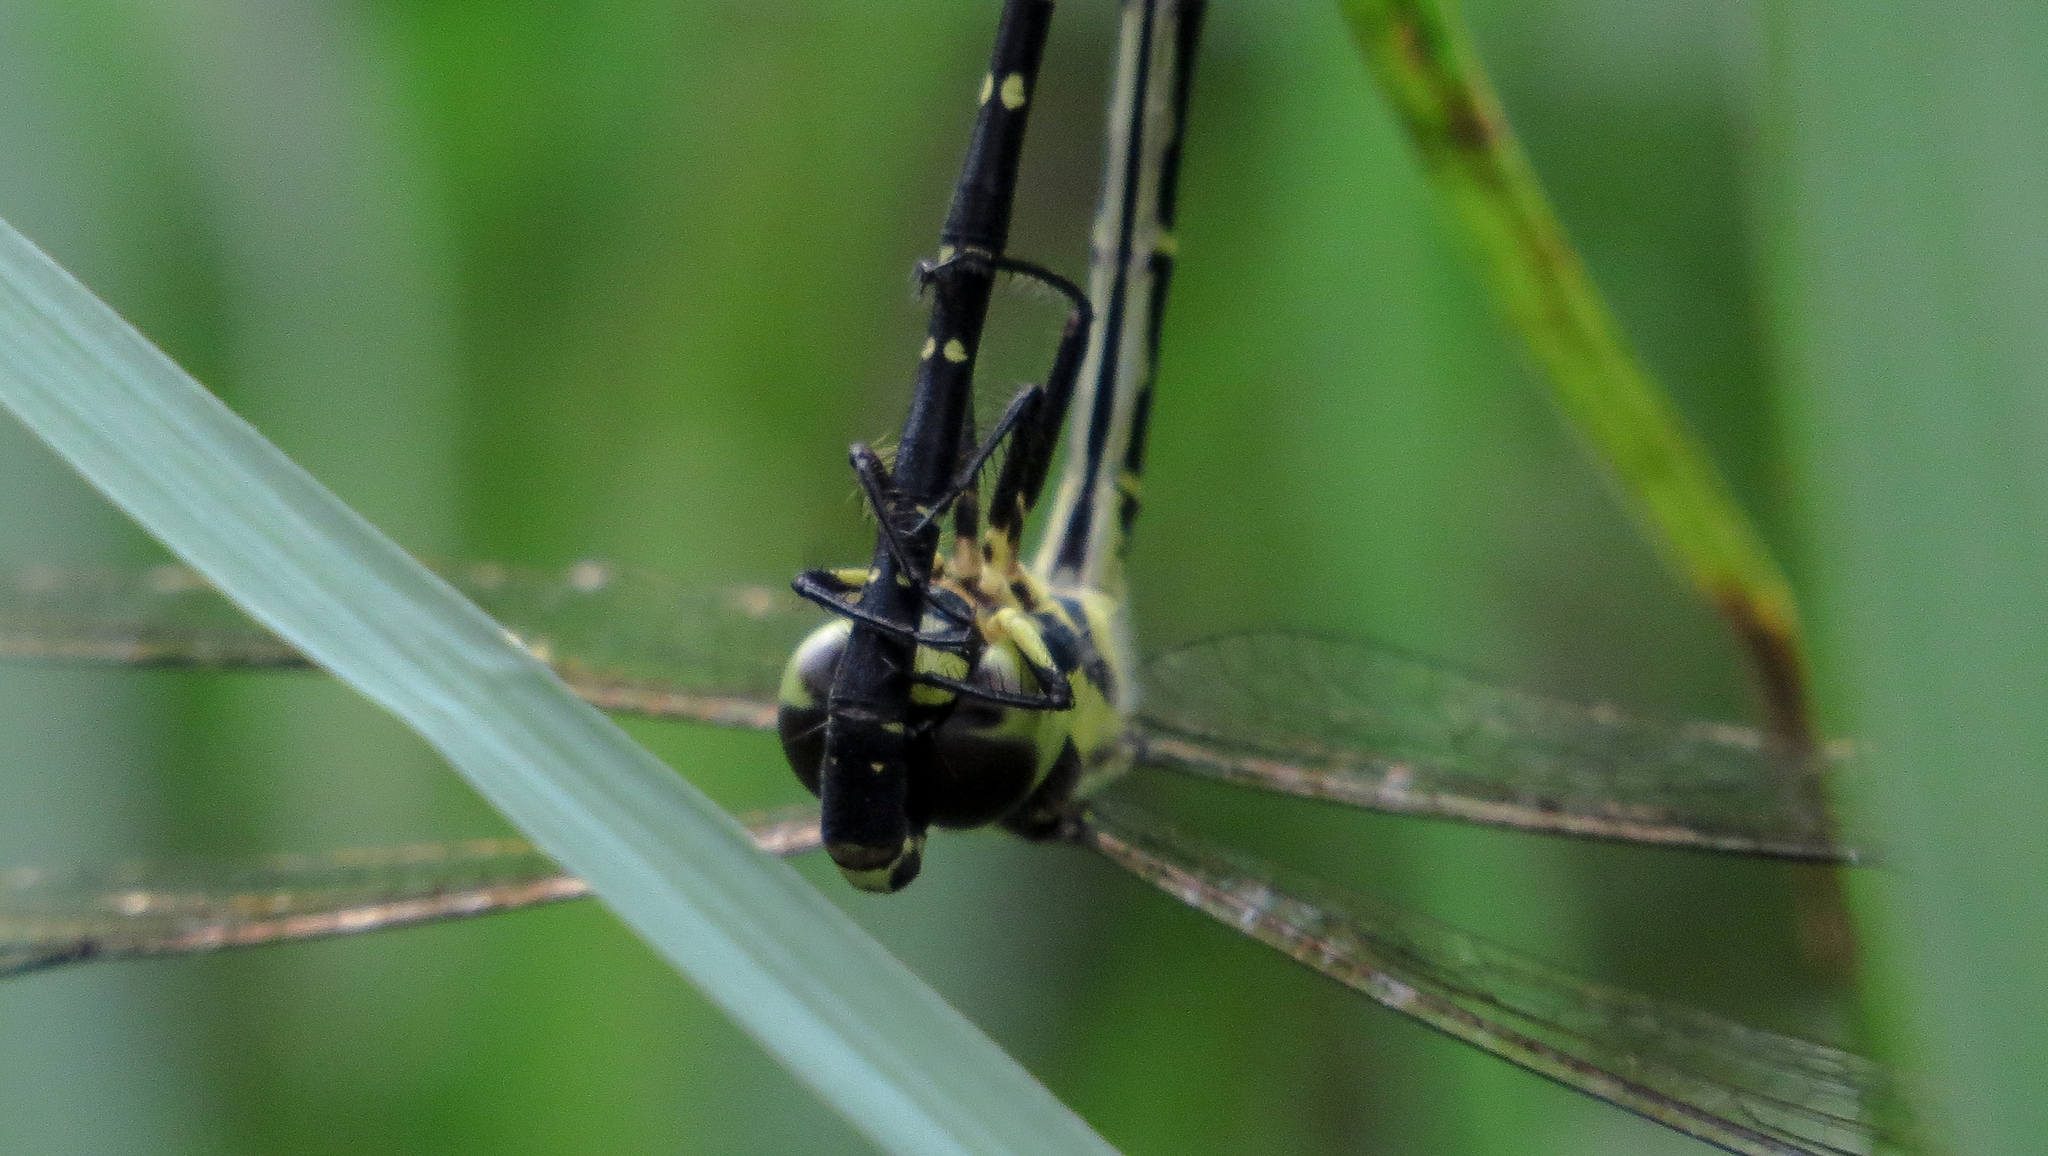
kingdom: Animalia
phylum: Arthropoda
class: Insecta
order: Odonata
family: Synthemistidae
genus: Choristhemis
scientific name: Choristhemis flavoterminata
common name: Yellow-tipped tigertail
